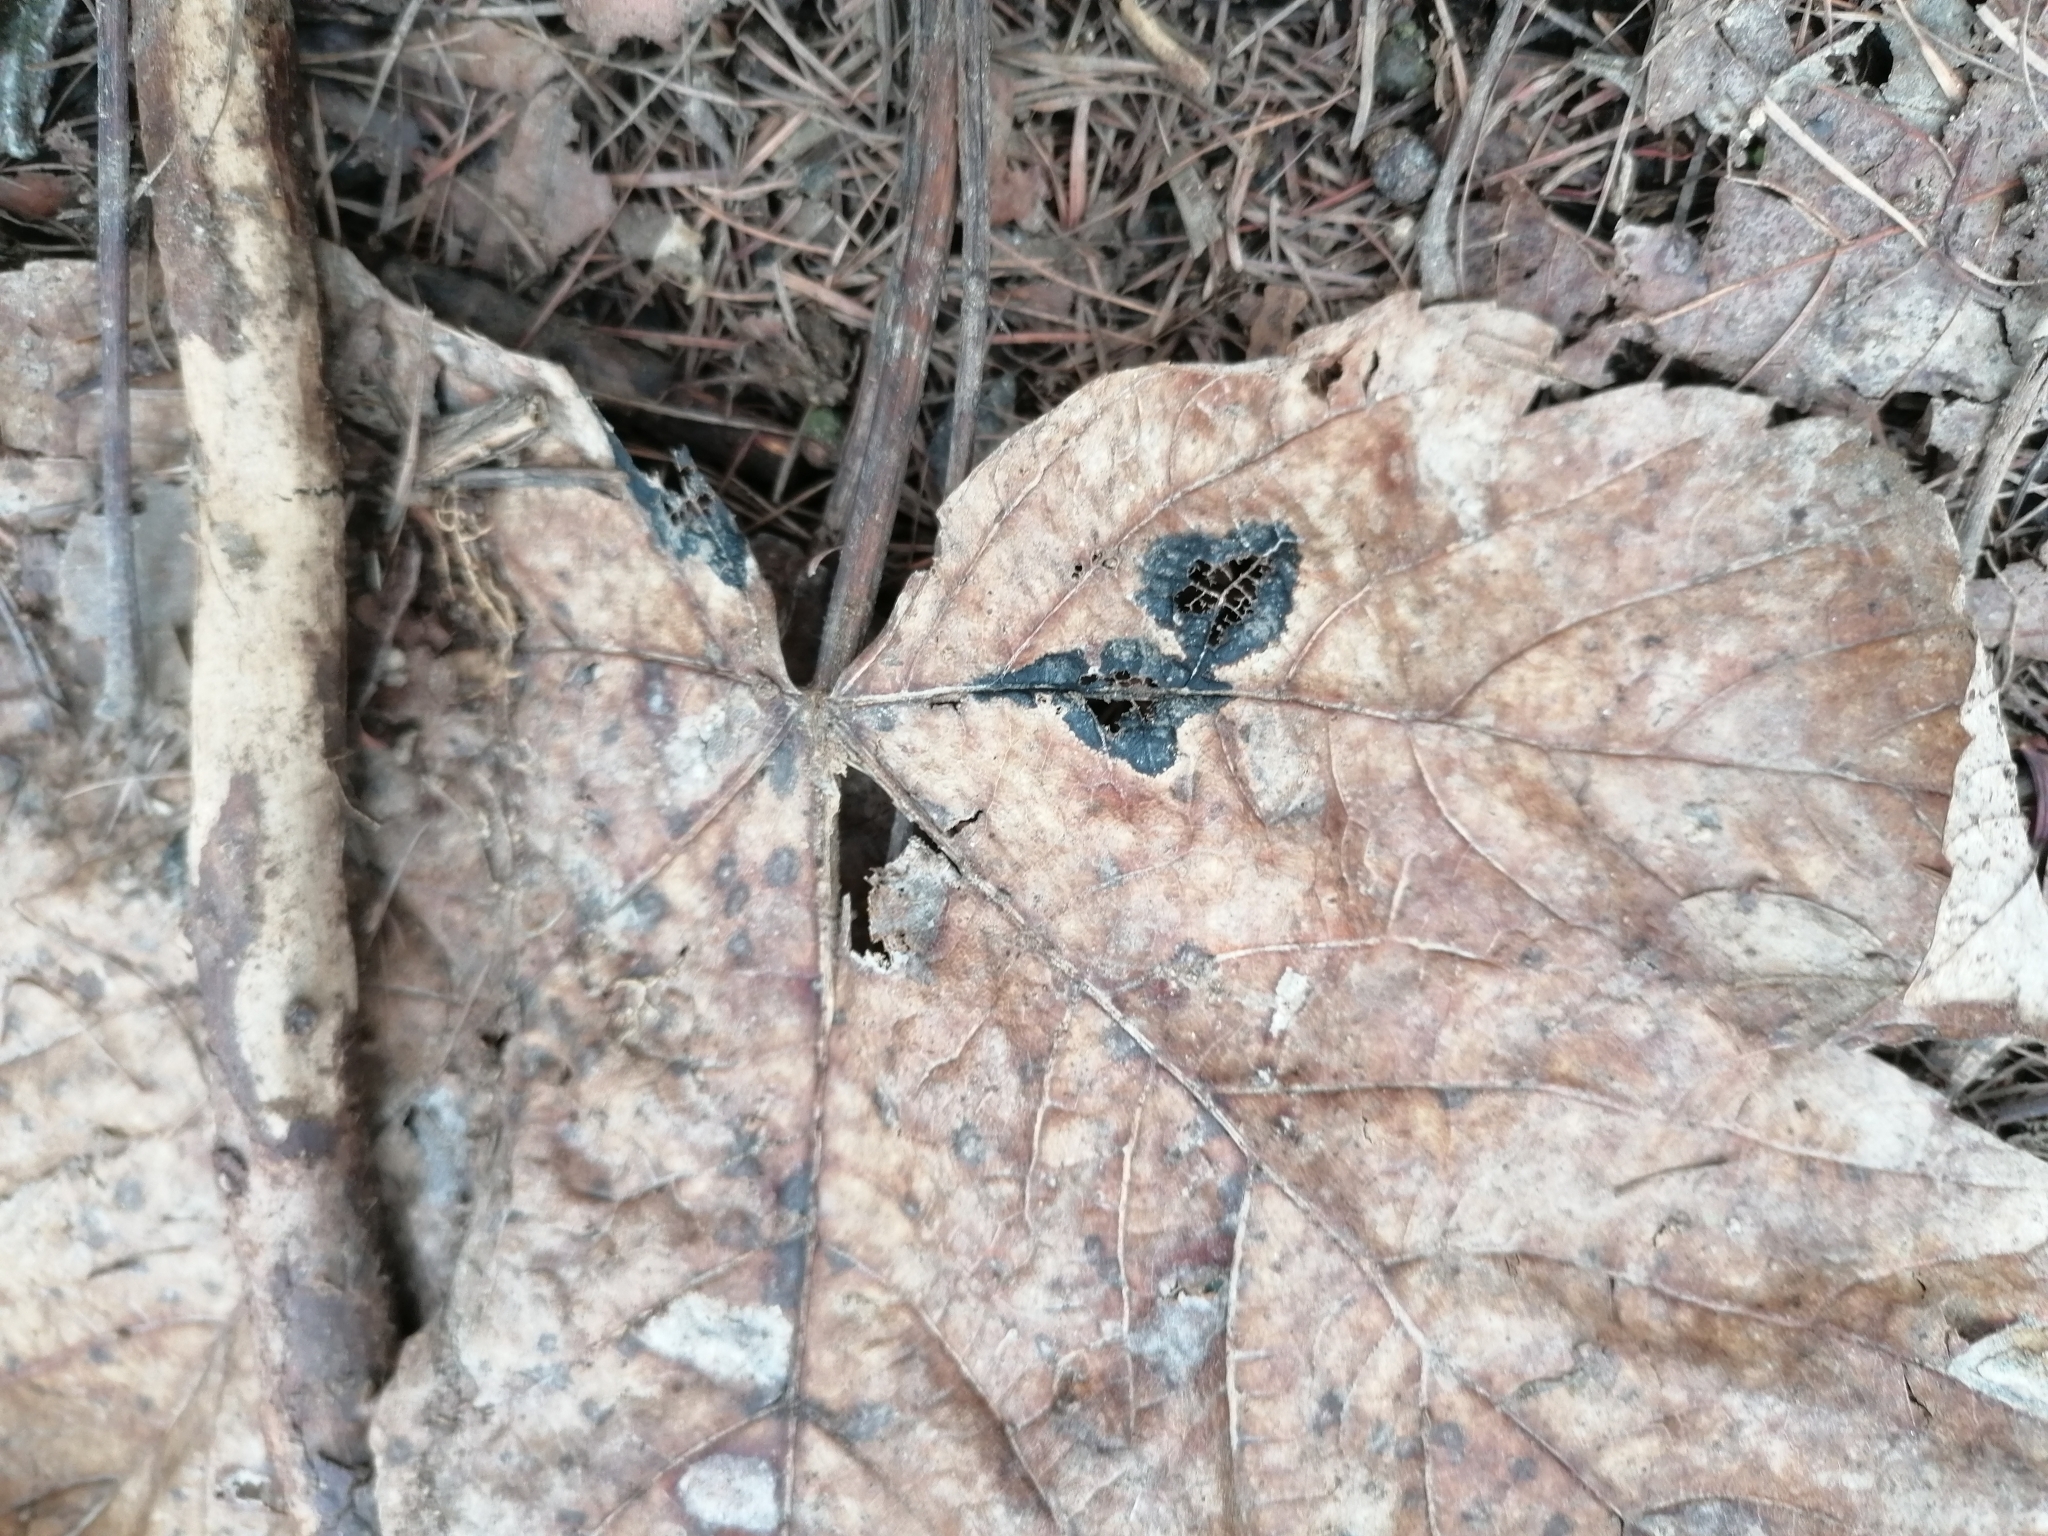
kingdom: Fungi
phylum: Ascomycota
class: Leotiomycetes
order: Rhytismatales
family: Rhytismataceae
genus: Rhytisma
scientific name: Rhytisma acerinum
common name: European tar spot
